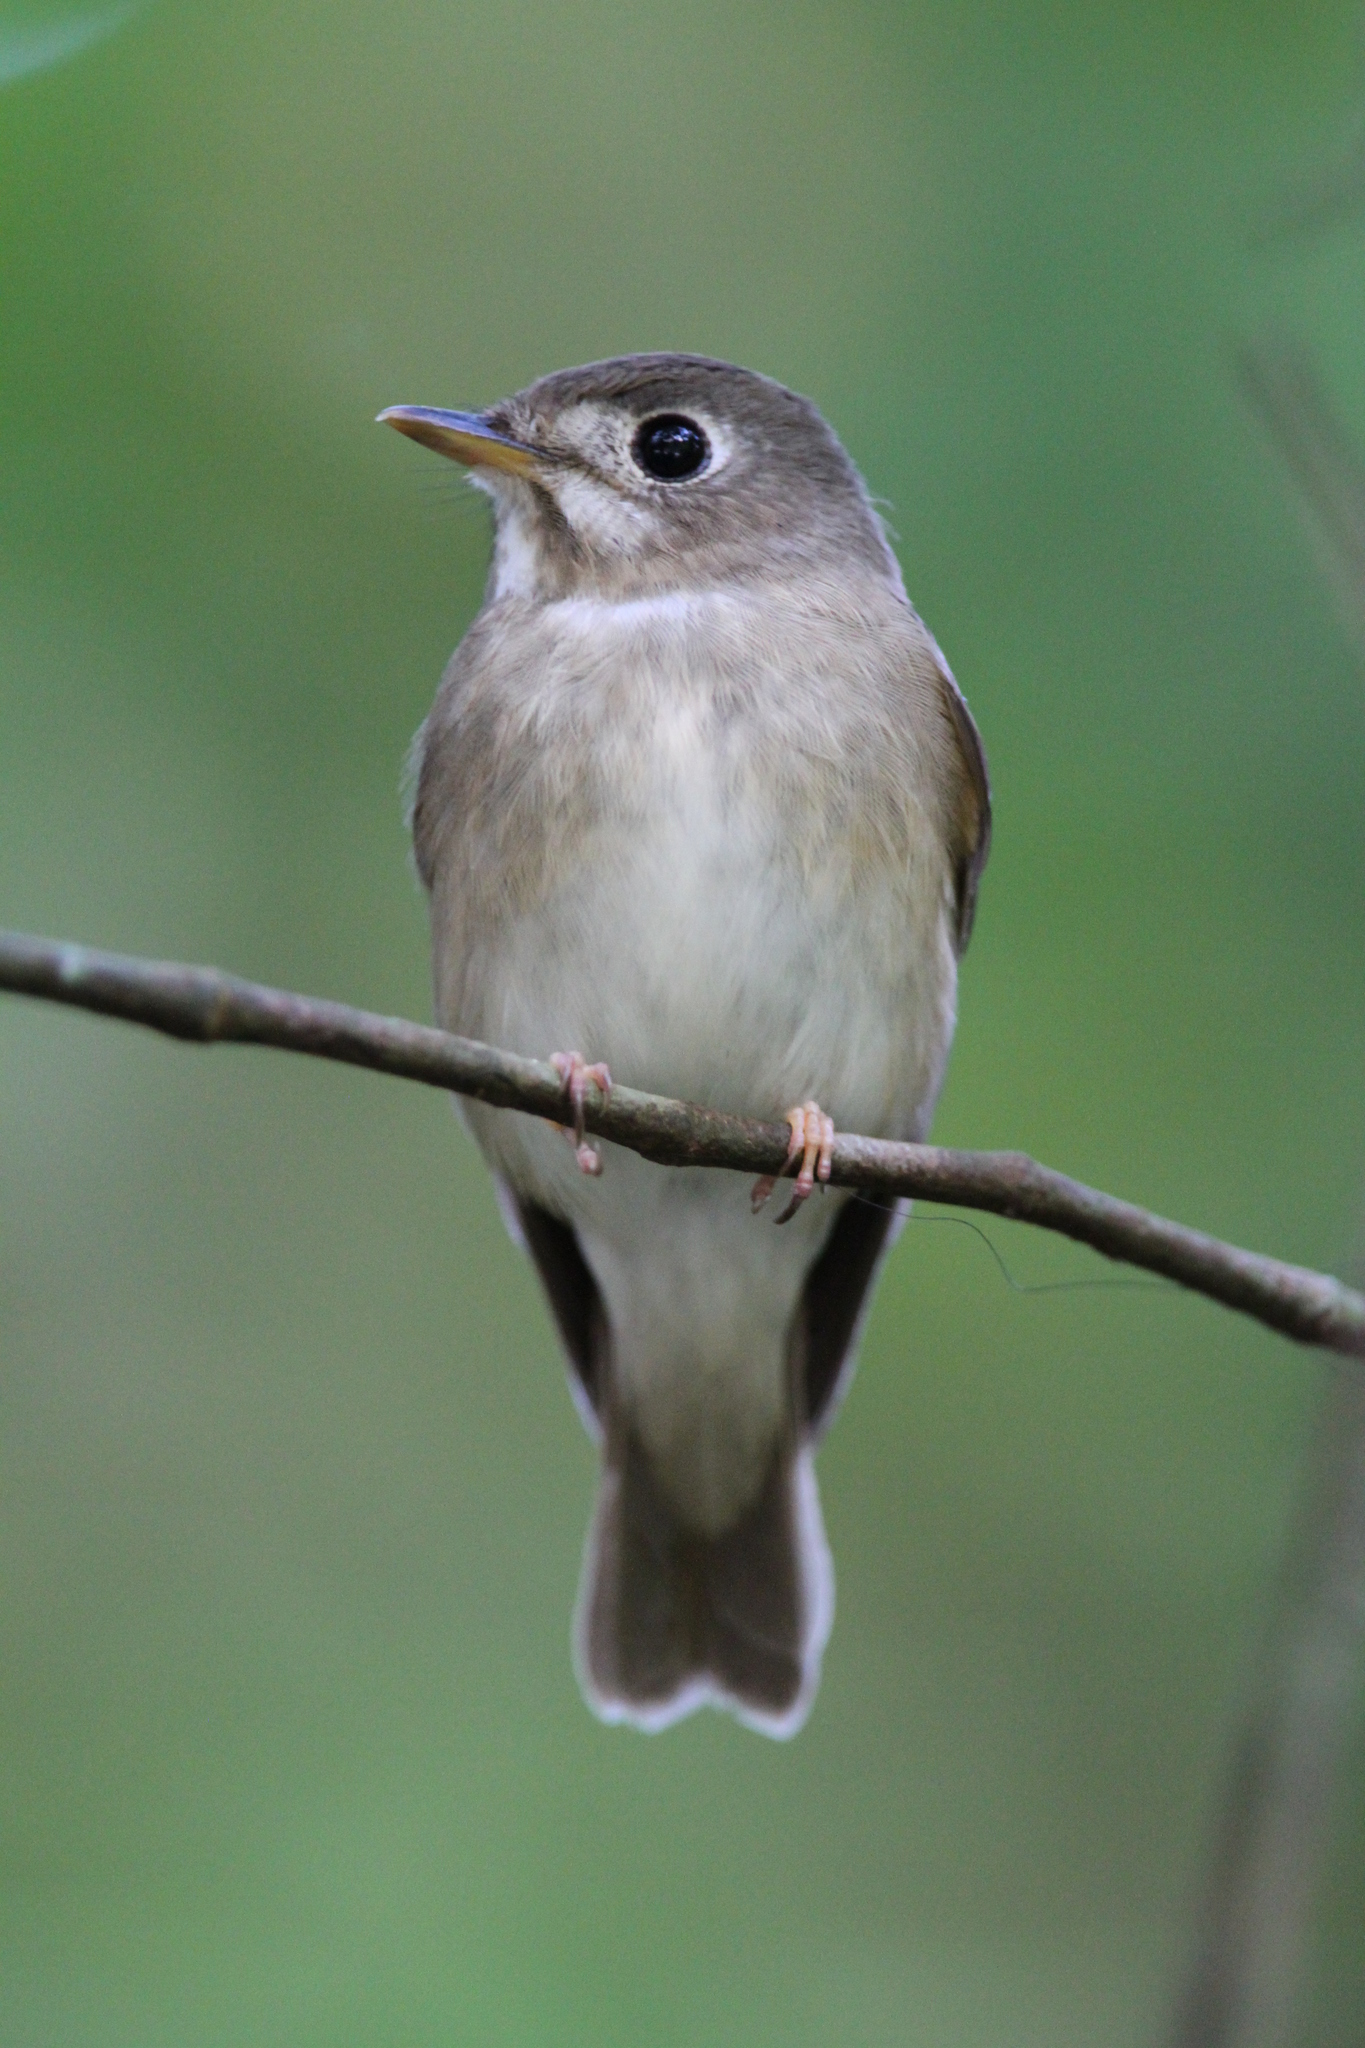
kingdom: Animalia
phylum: Chordata
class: Aves
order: Passeriformes
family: Muscicapidae
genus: Muscicapa
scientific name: Muscicapa muttui
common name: Brown-breasted flycatcher
